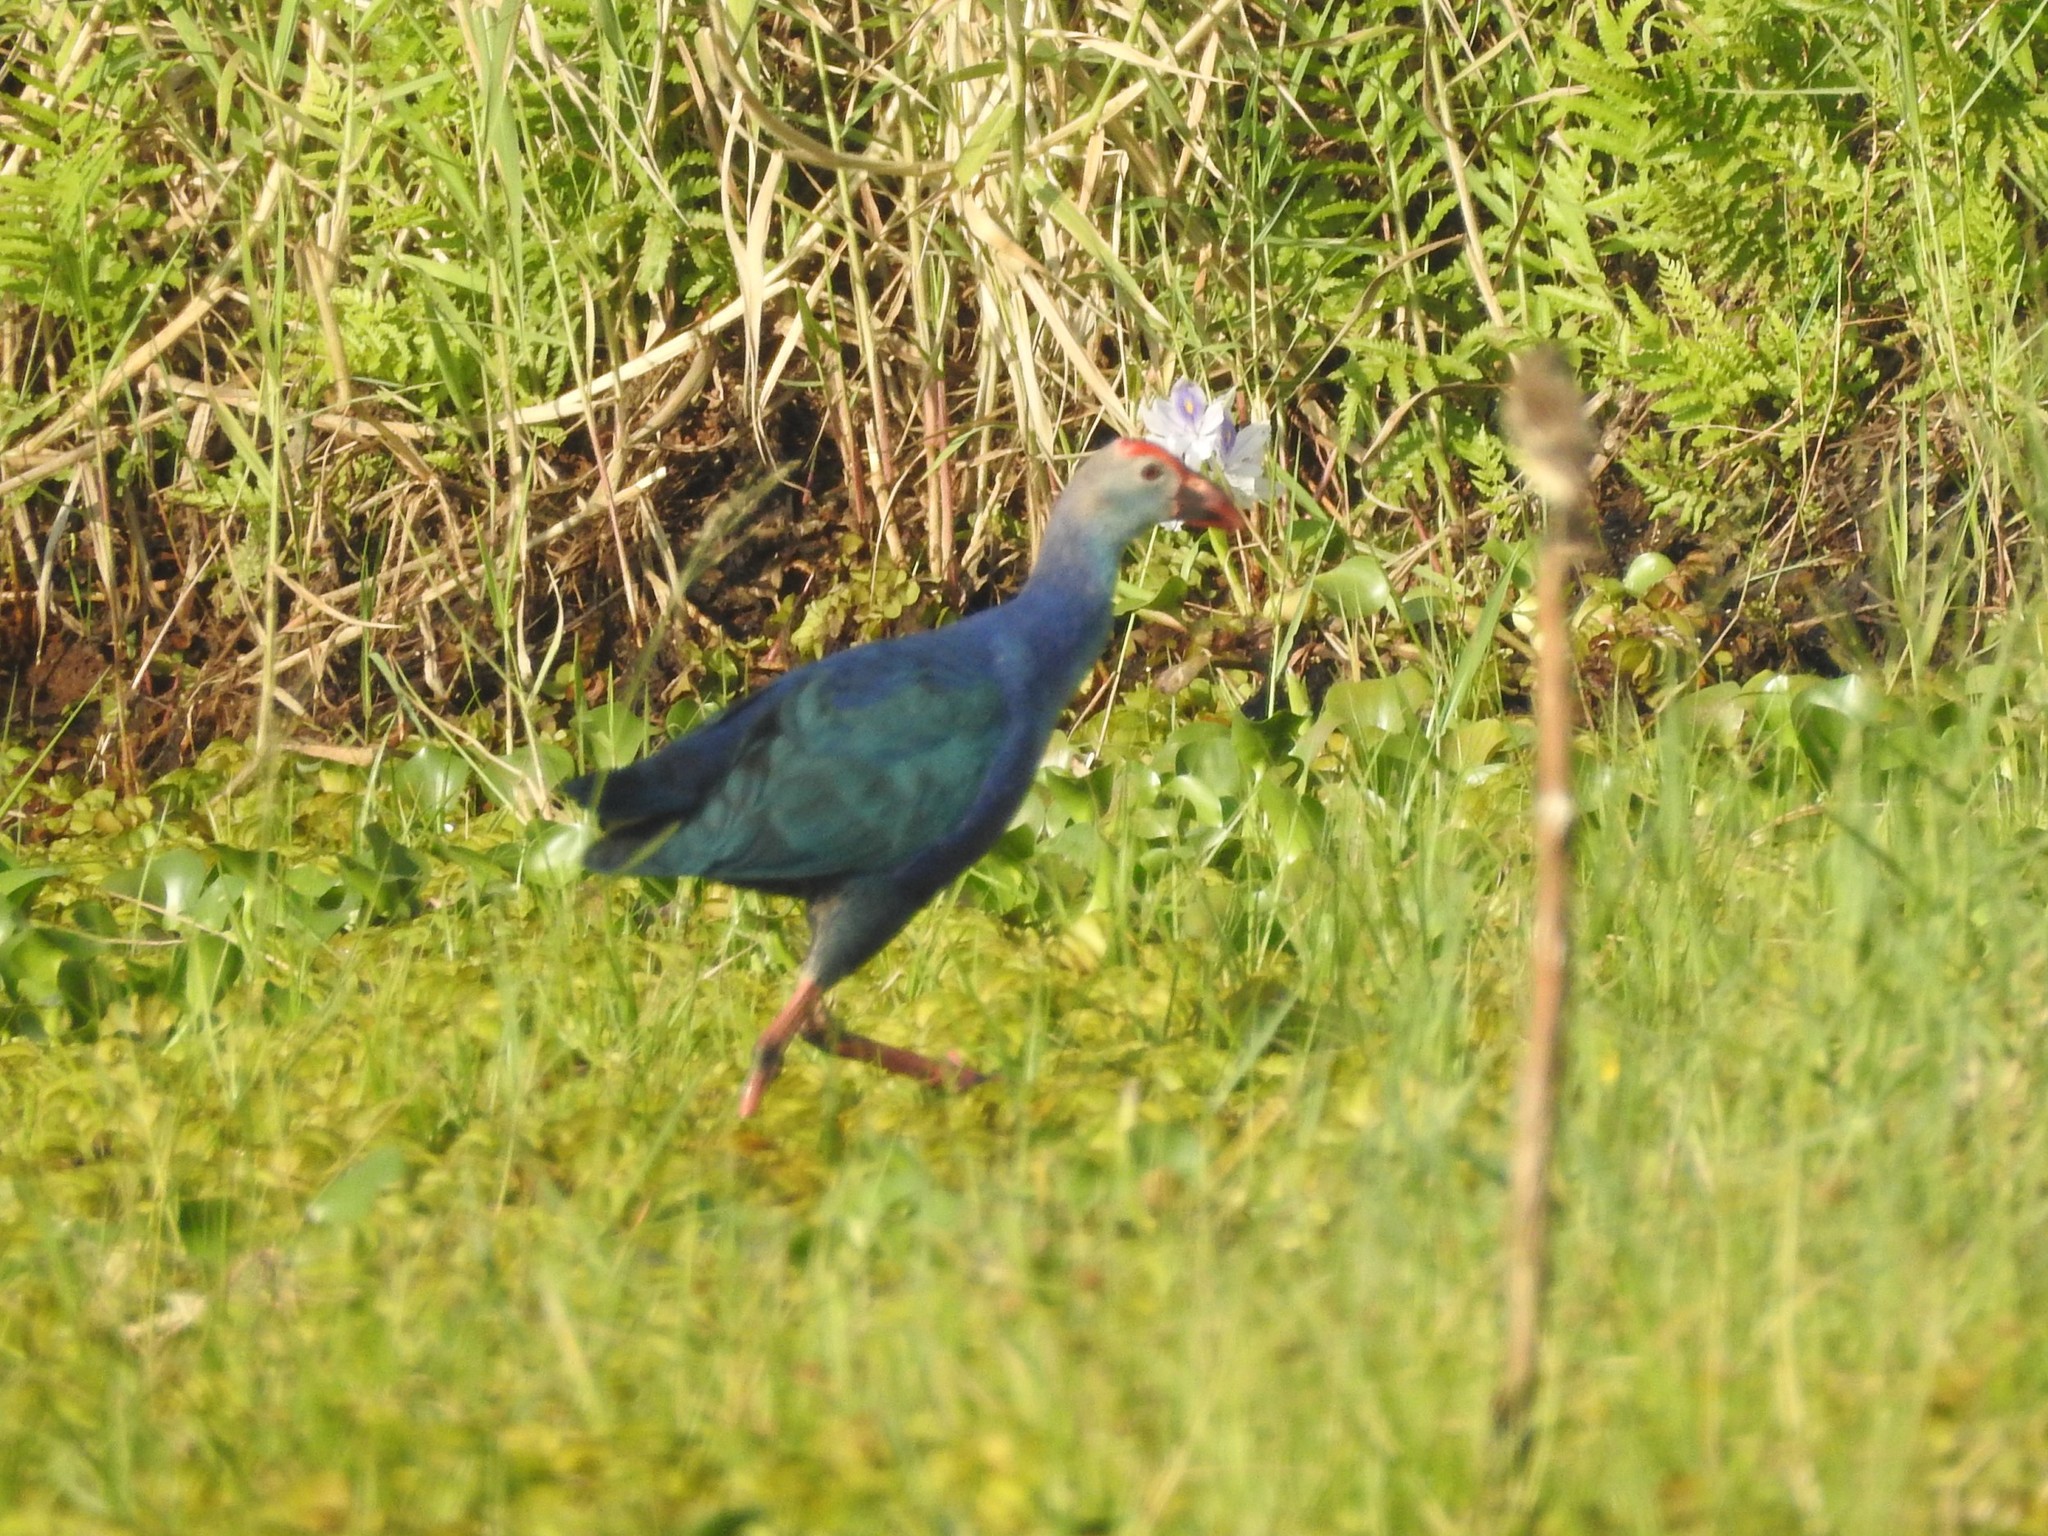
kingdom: Animalia
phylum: Chordata
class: Aves
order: Gruiformes
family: Rallidae
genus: Porphyrio
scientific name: Porphyrio porphyrio
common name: Purple swamphen
